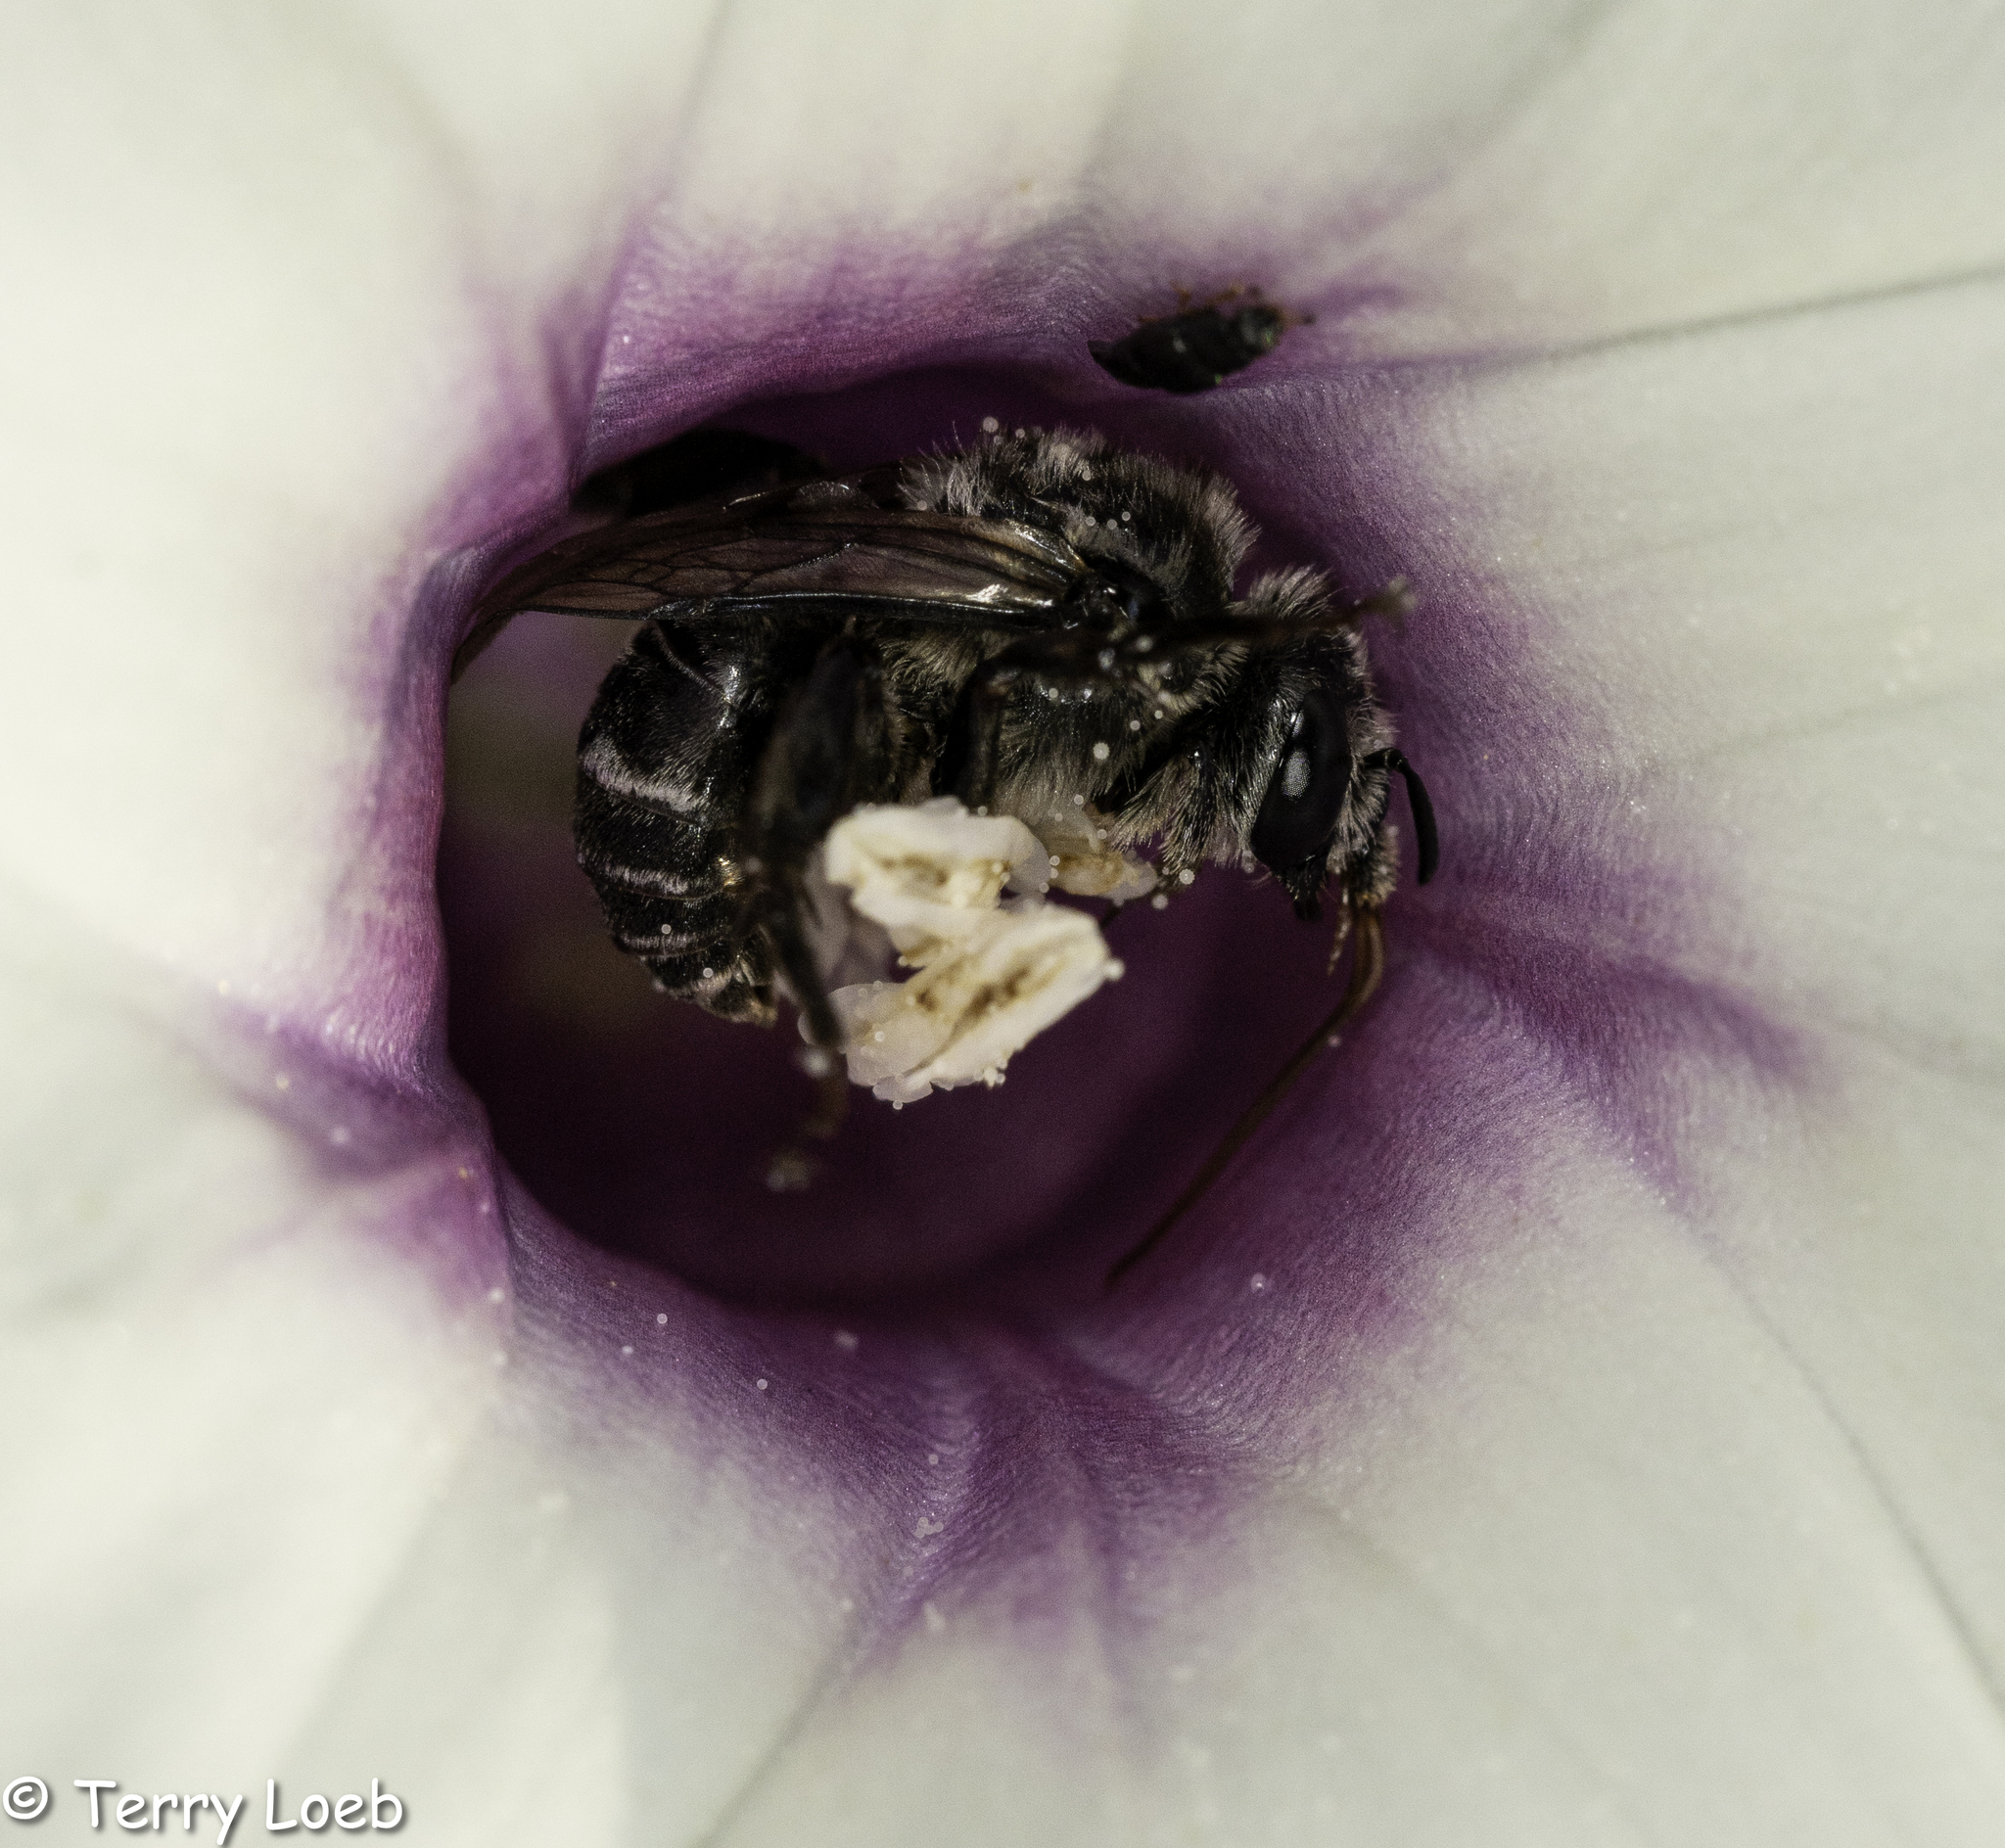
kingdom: Animalia
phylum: Arthropoda
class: Insecta
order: Hymenoptera
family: Apidae
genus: Melitoma
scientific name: Melitoma taurea
